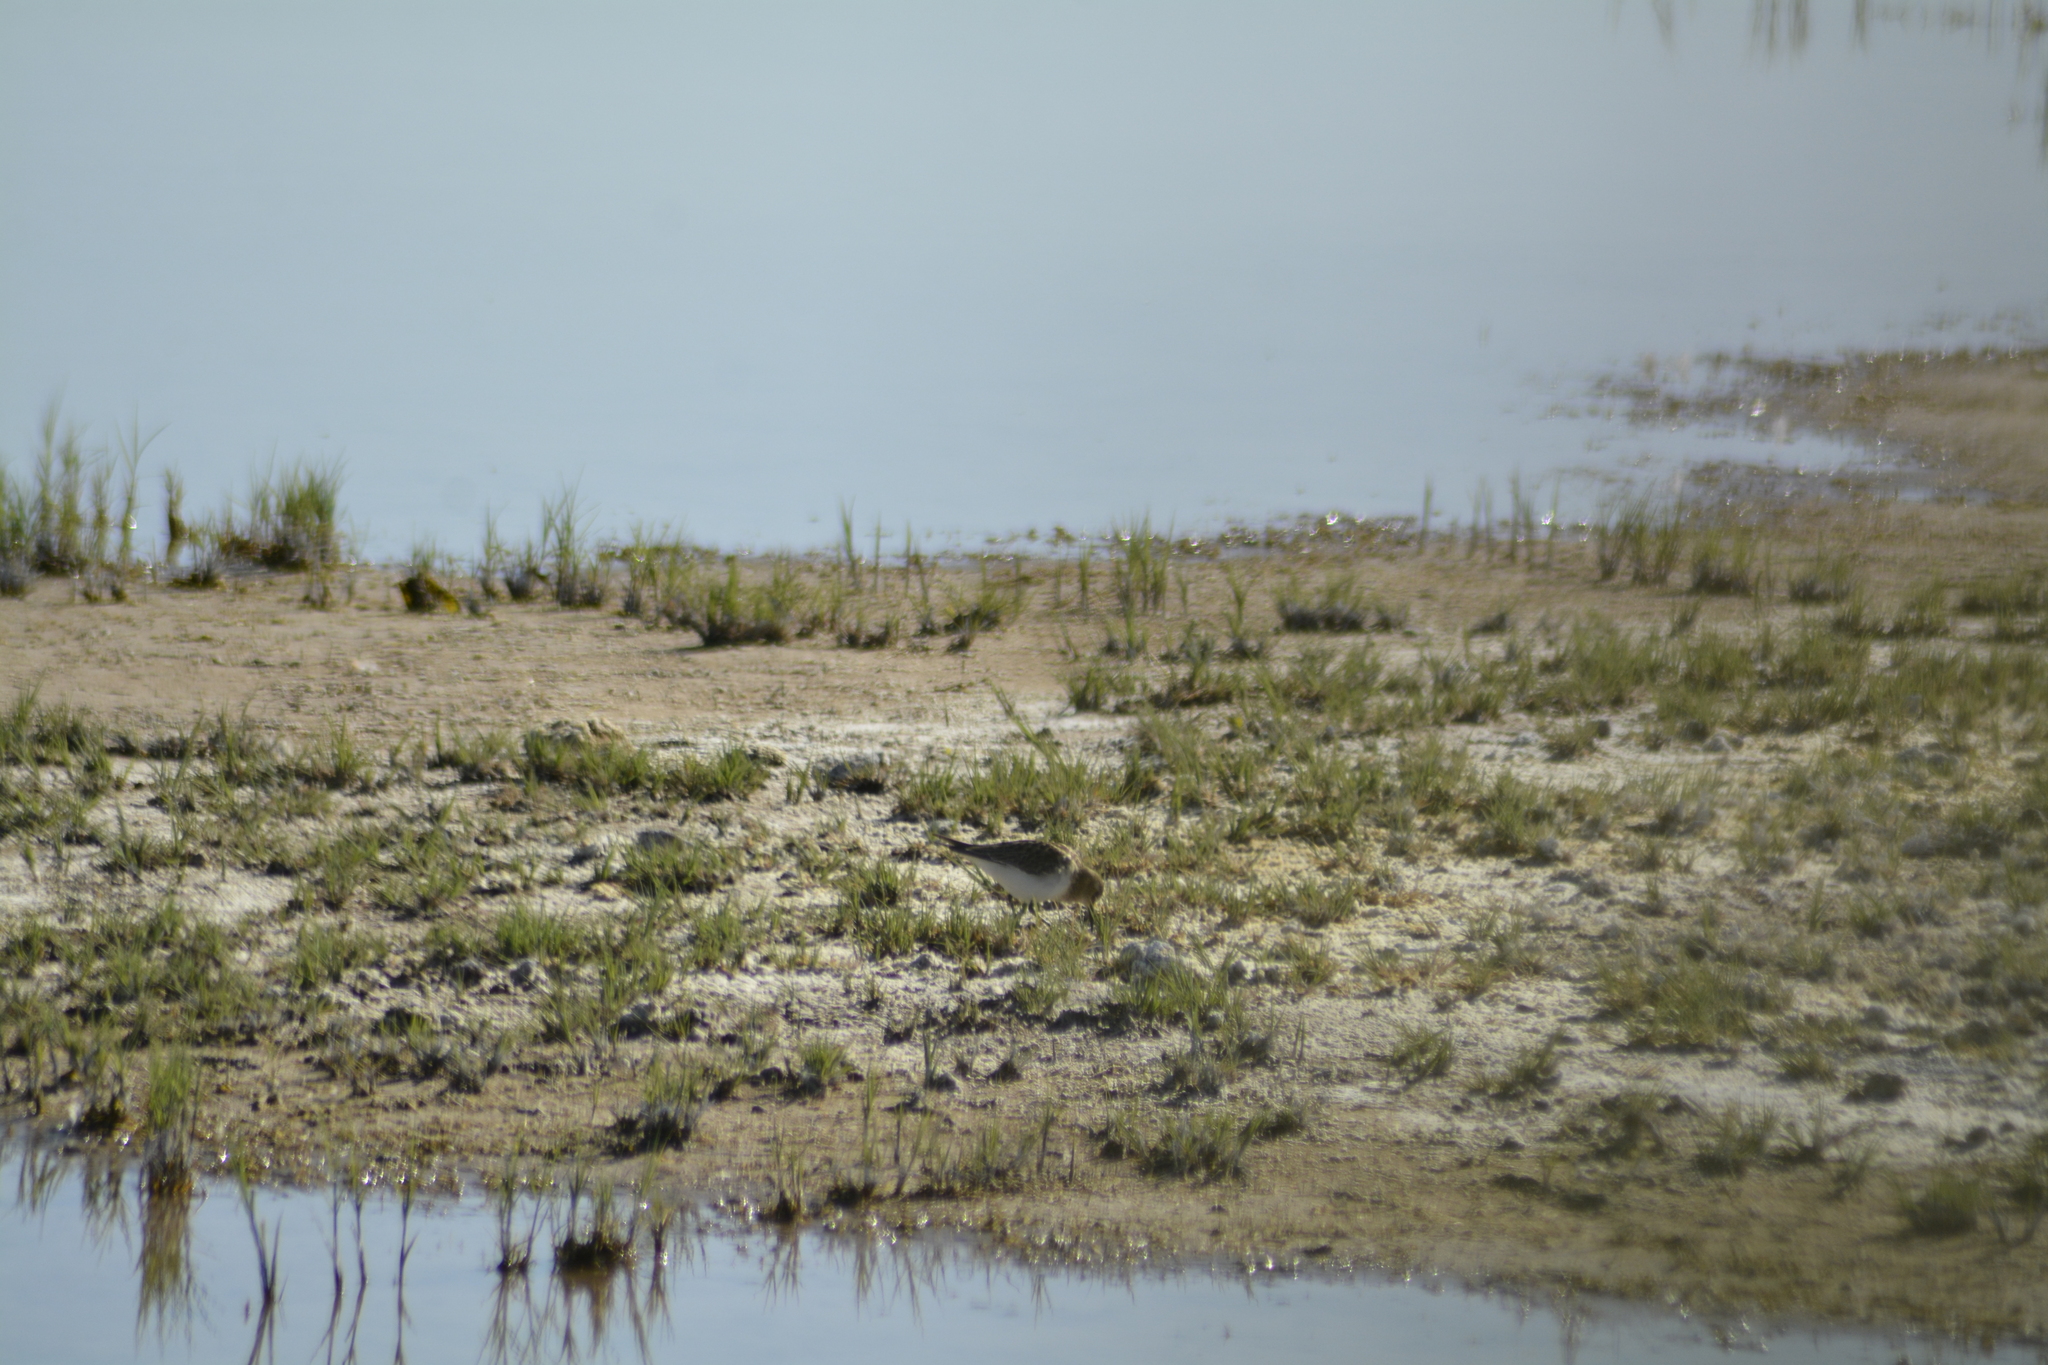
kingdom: Animalia
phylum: Chordata
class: Aves
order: Charadriiformes
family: Scolopacidae
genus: Calidris
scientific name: Calidris bairdii
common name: Baird's sandpiper
